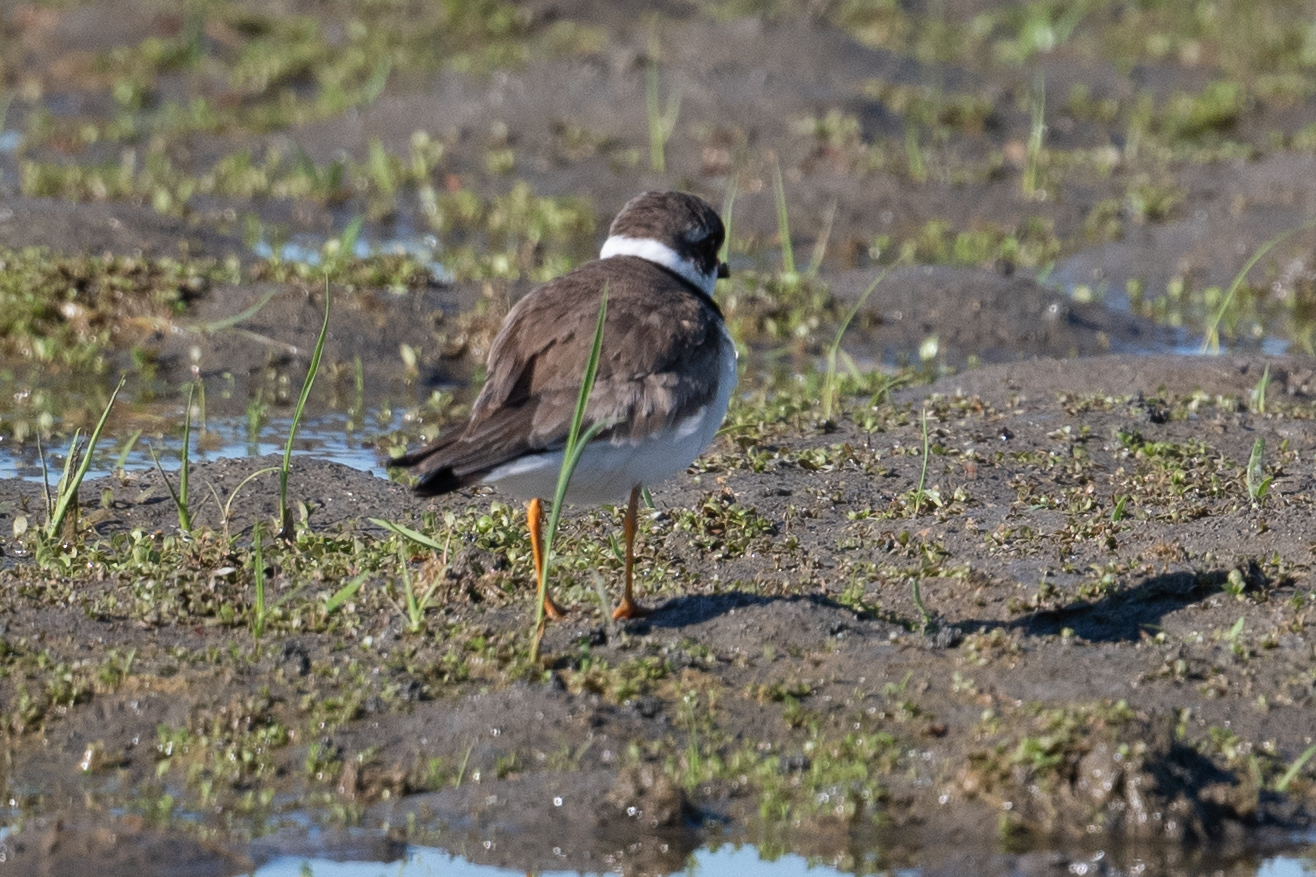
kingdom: Animalia
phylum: Chordata
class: Aves
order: Charadriiformes
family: Charadriidae
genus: Charadrius
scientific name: Charadrius semipalmatus
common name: Semipalmated plover
